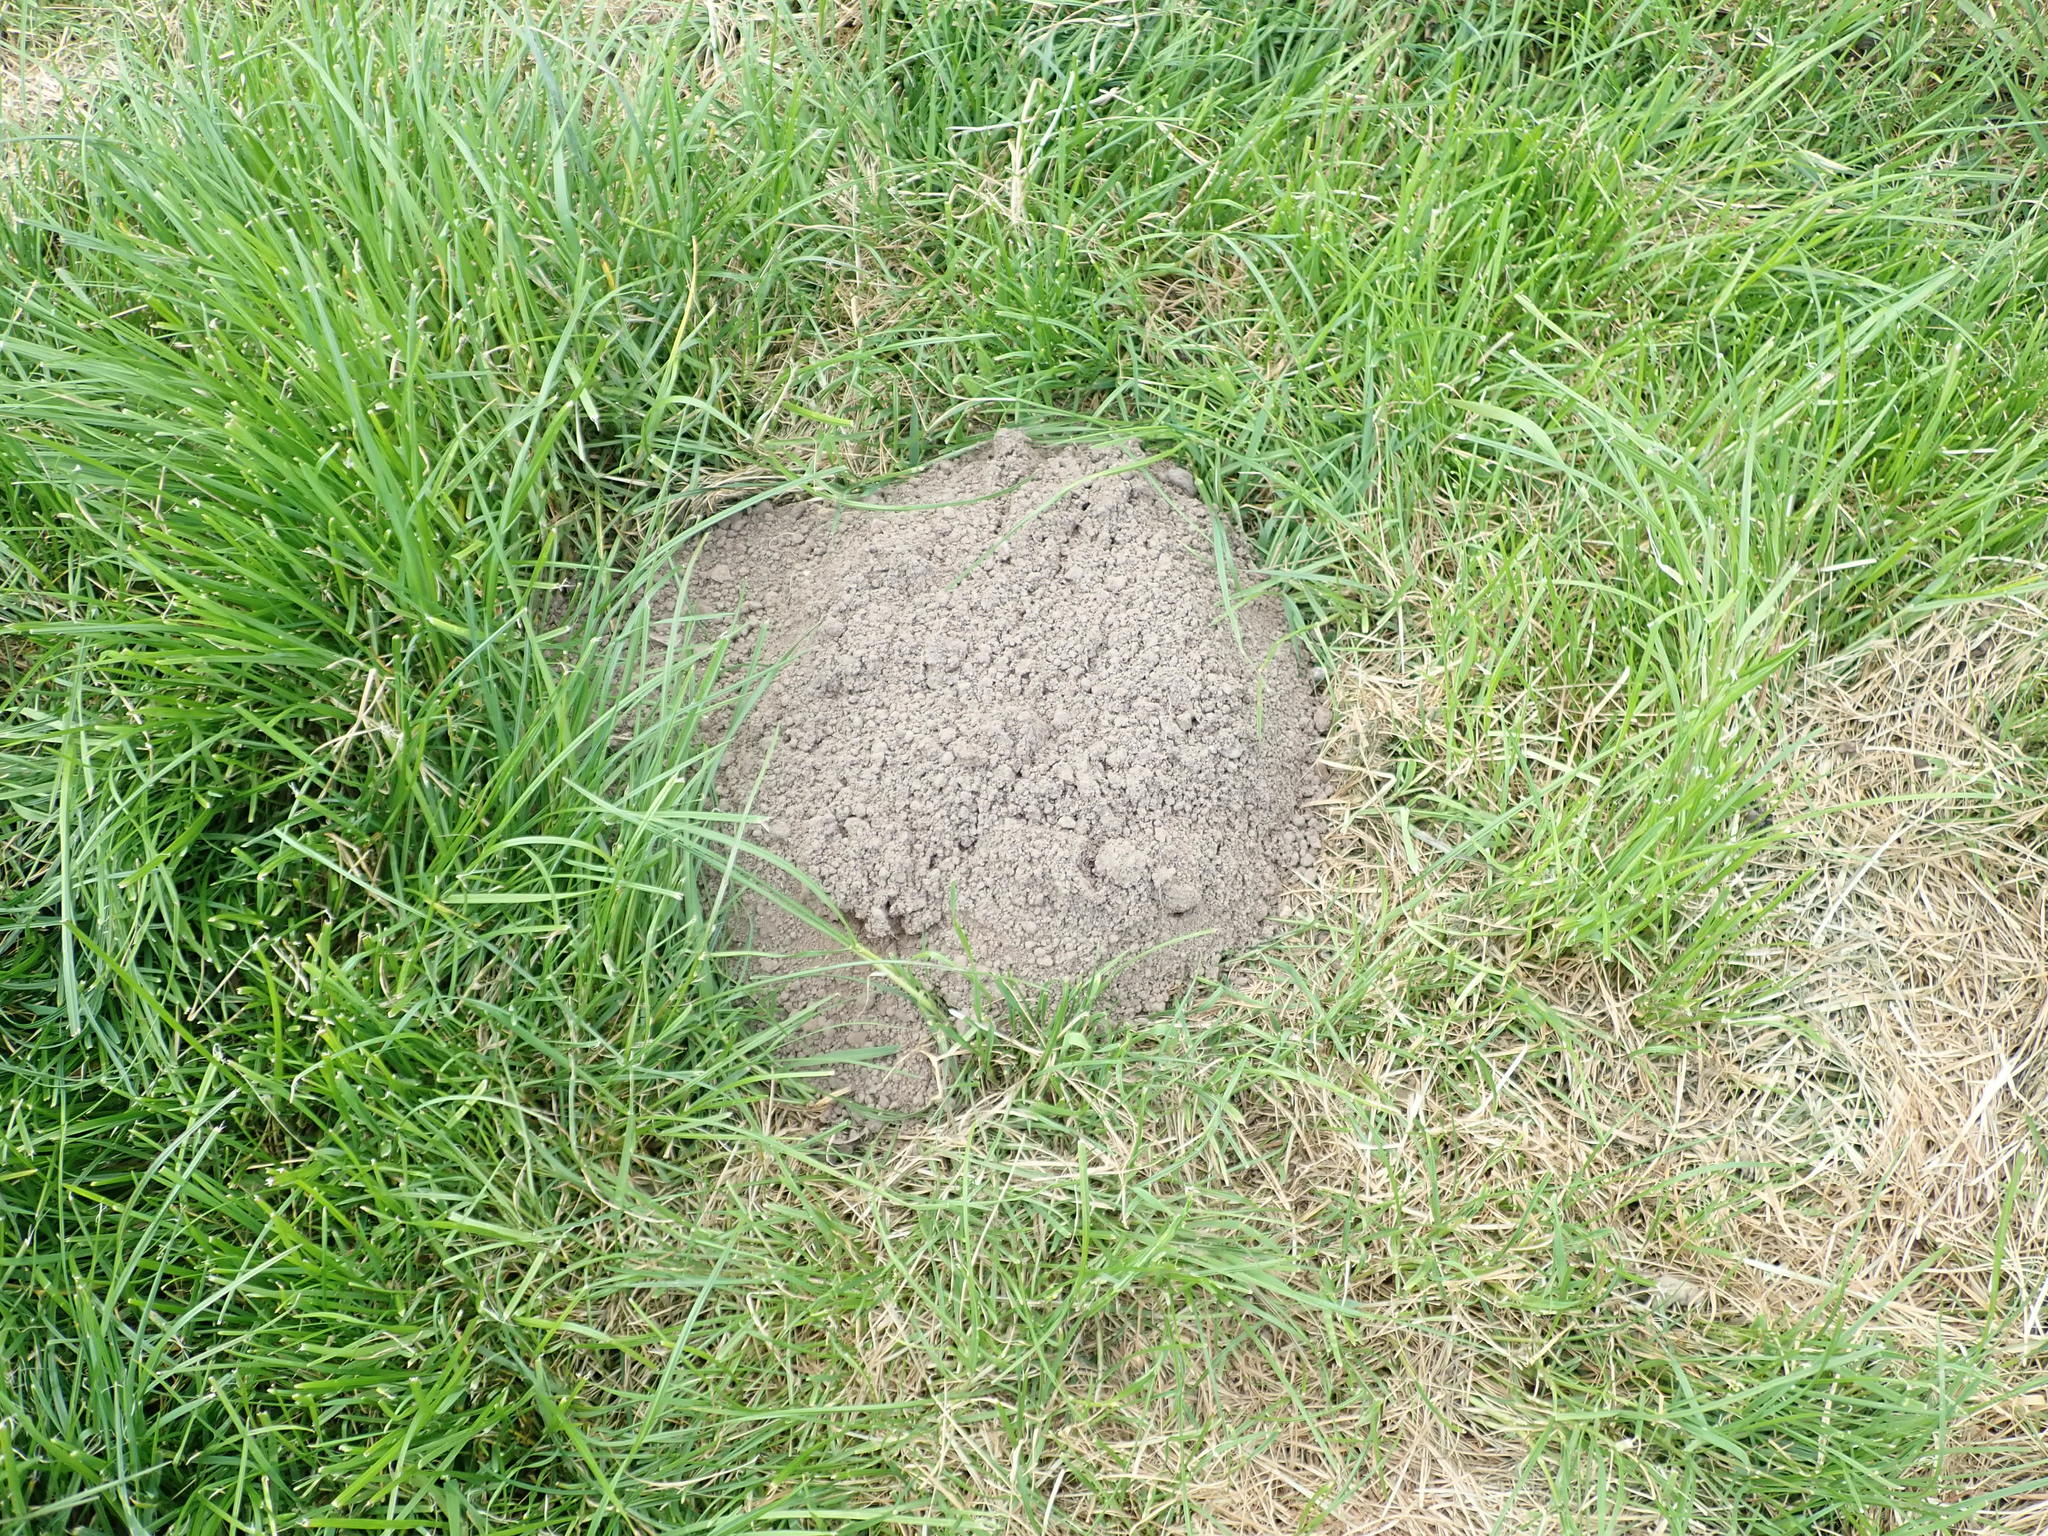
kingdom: Animalia
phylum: Chordata
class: Mammalia
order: Soricomorpha
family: Talpidae
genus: Talpa
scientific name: Talpa europaea
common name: European mole
